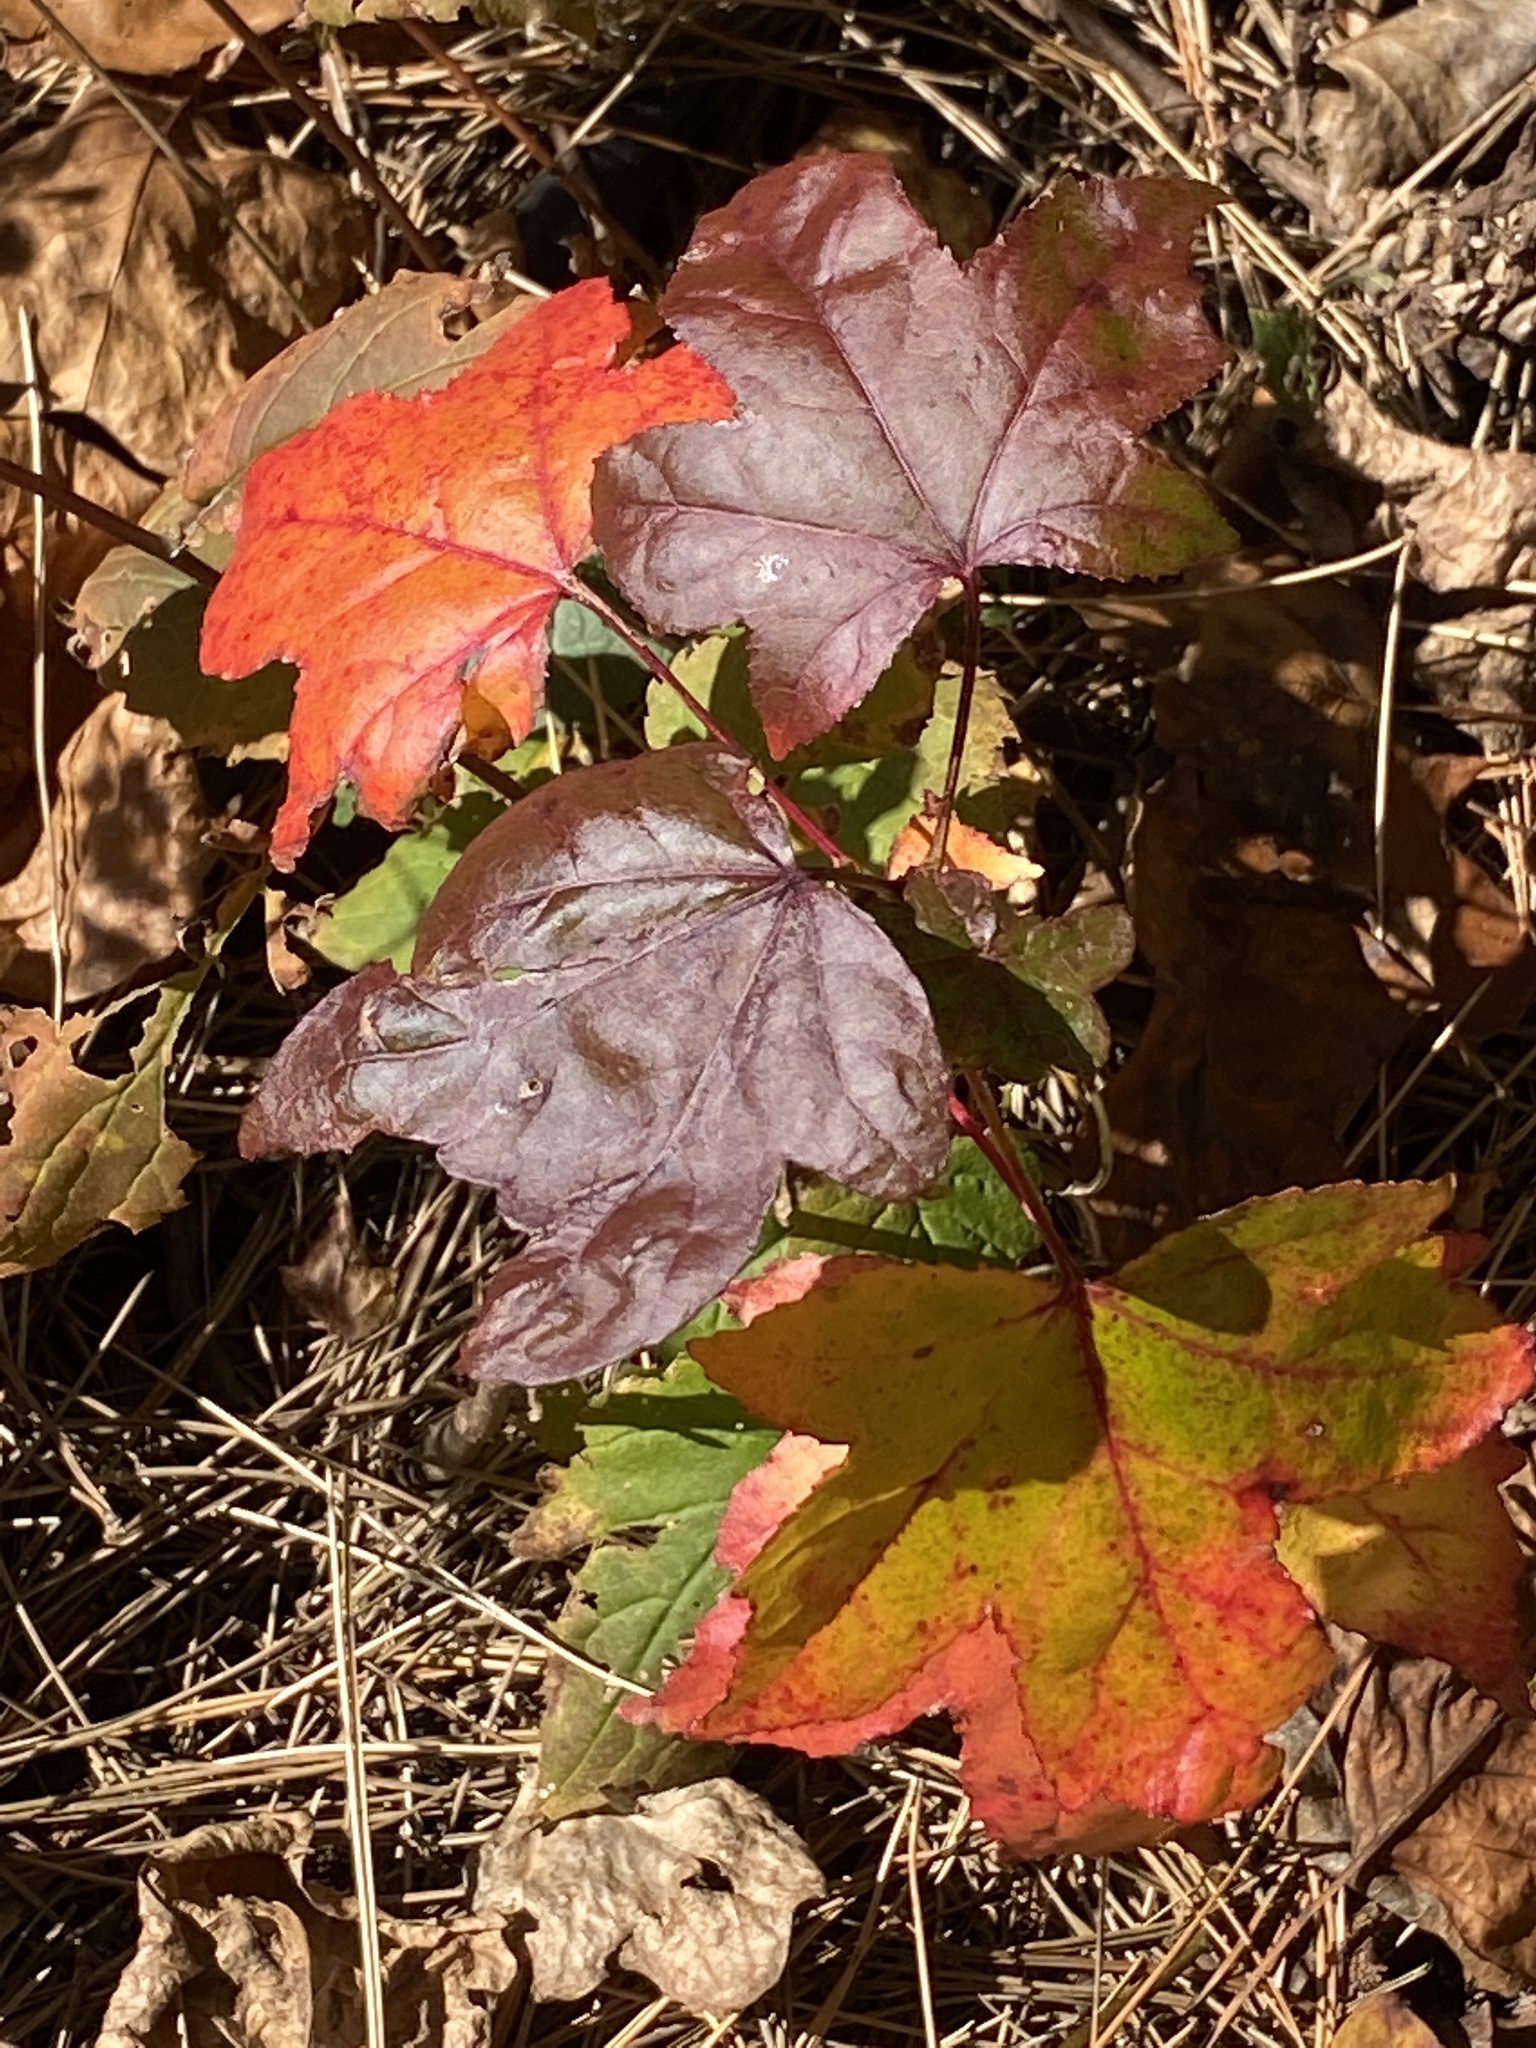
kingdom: Plantae
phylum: Tracheophyta
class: Magnoliopsida
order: Saxifragales
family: Altingiaceae
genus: Liquidambar
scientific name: Liquidambar styraciflua
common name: Sweet gum
